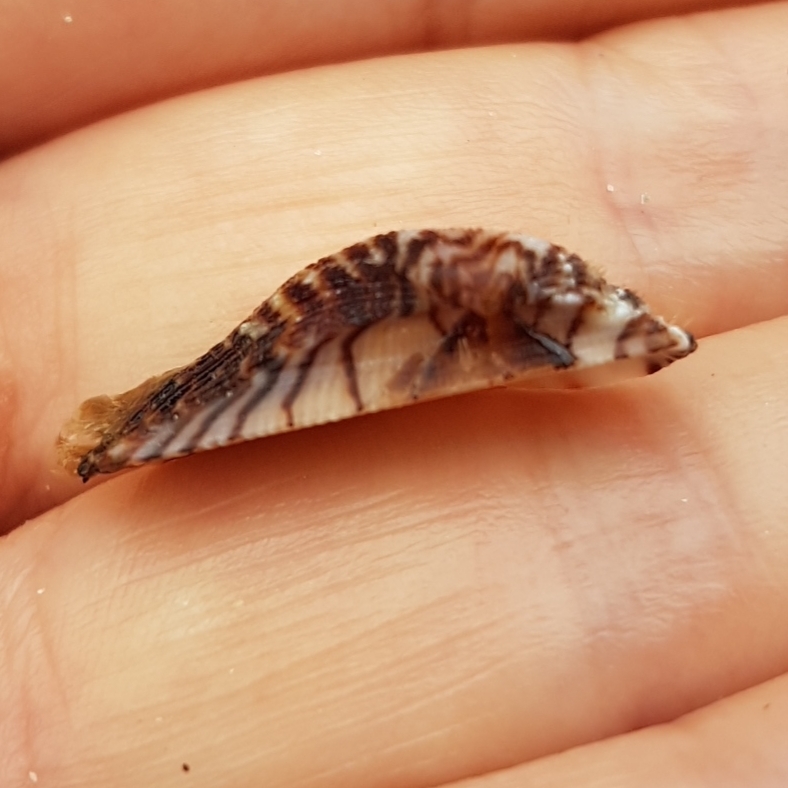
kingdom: Animalia
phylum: Mollusca
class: Bivalvia
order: Arcida
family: Arcidae
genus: Arca
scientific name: Arca noae
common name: Noah's arch
